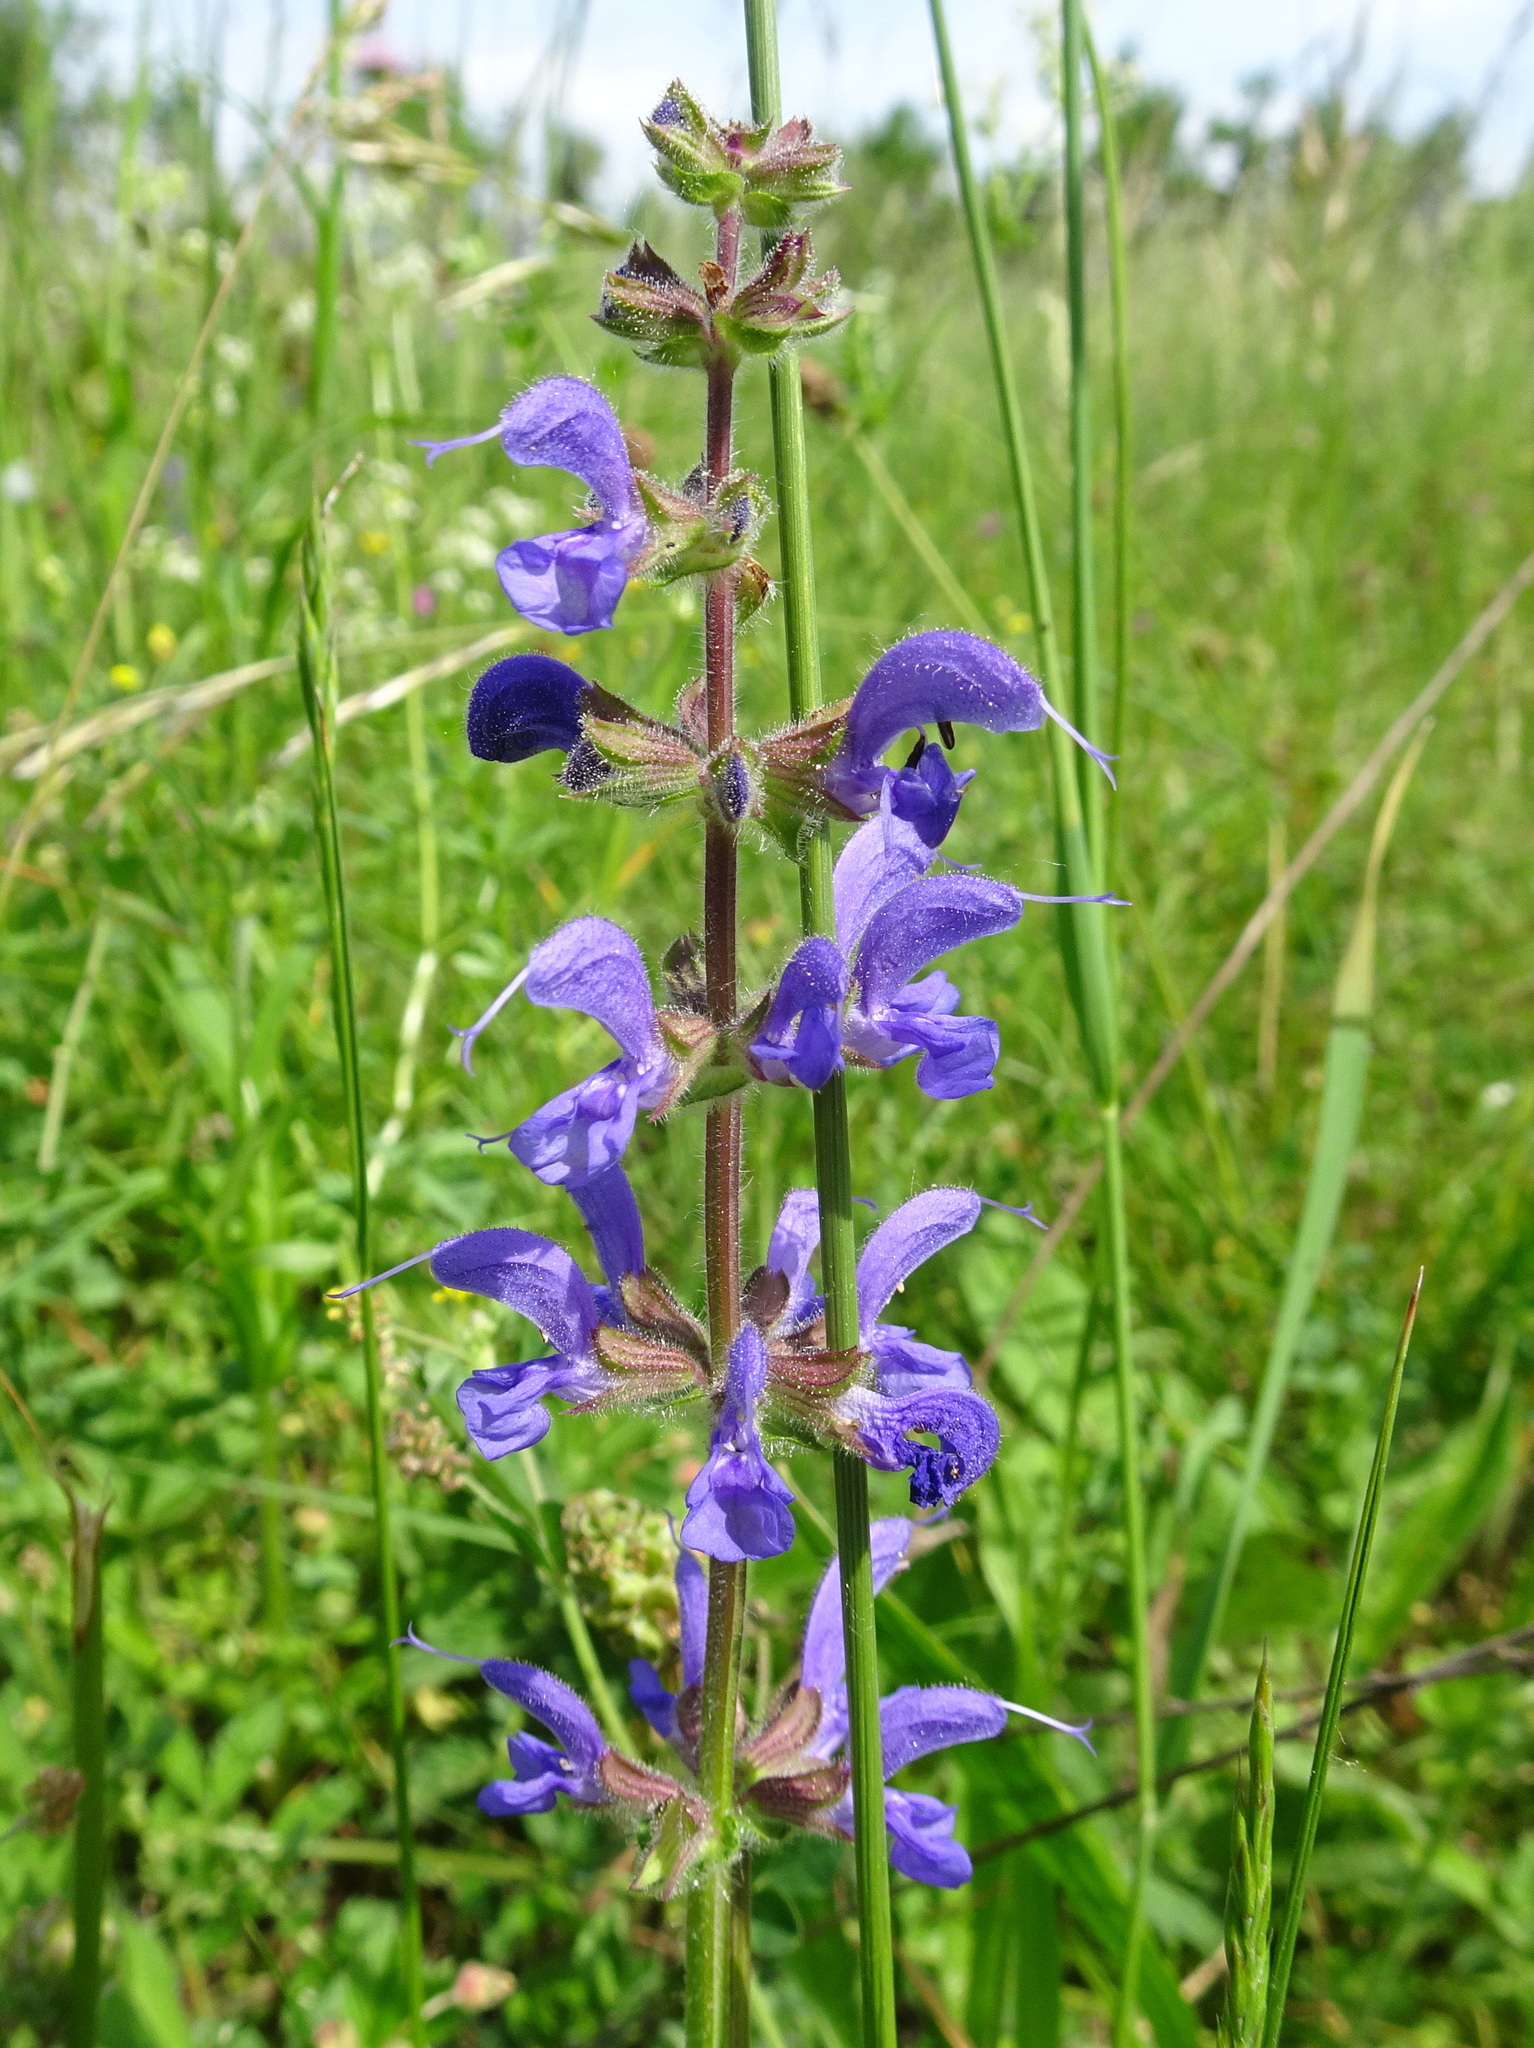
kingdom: Plantae
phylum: Tracheophyta
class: Magnoliopsida
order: Lamiales
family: Lamiaceae
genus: Salvia
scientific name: Salvia pratensis
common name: Meadow sage
